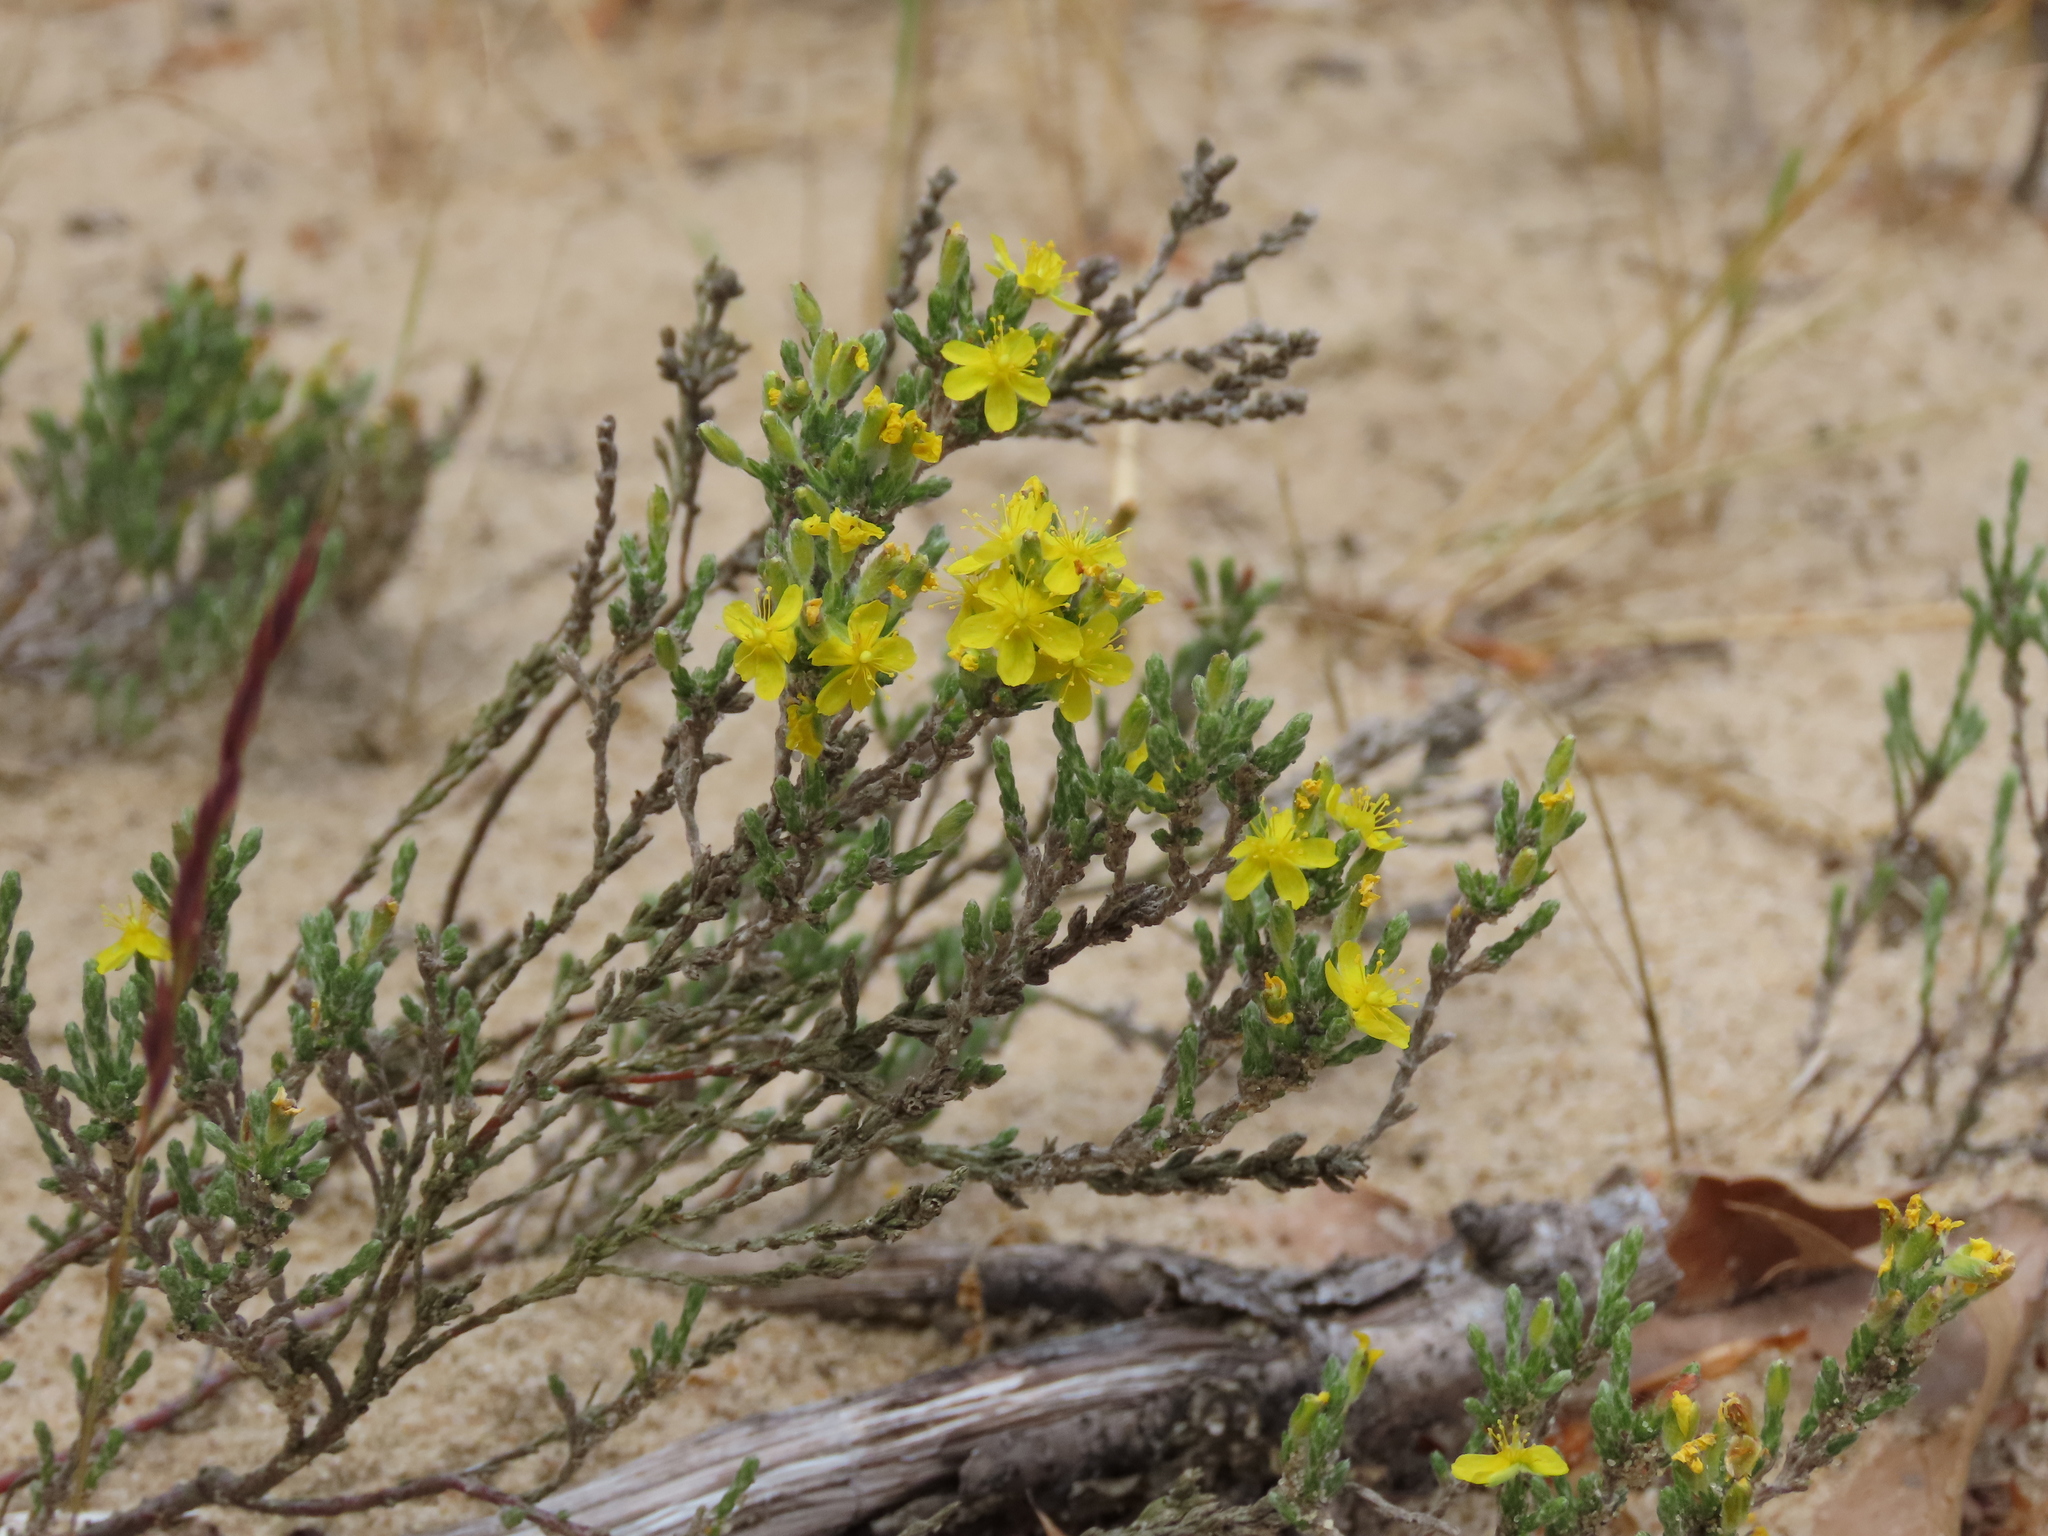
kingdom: Plantae
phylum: Tracheophyta
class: Magnoliopsida
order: Malvales
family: Cistaceae
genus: Hudsonia
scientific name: Hudsonia tomentosa
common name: Beach-heath
